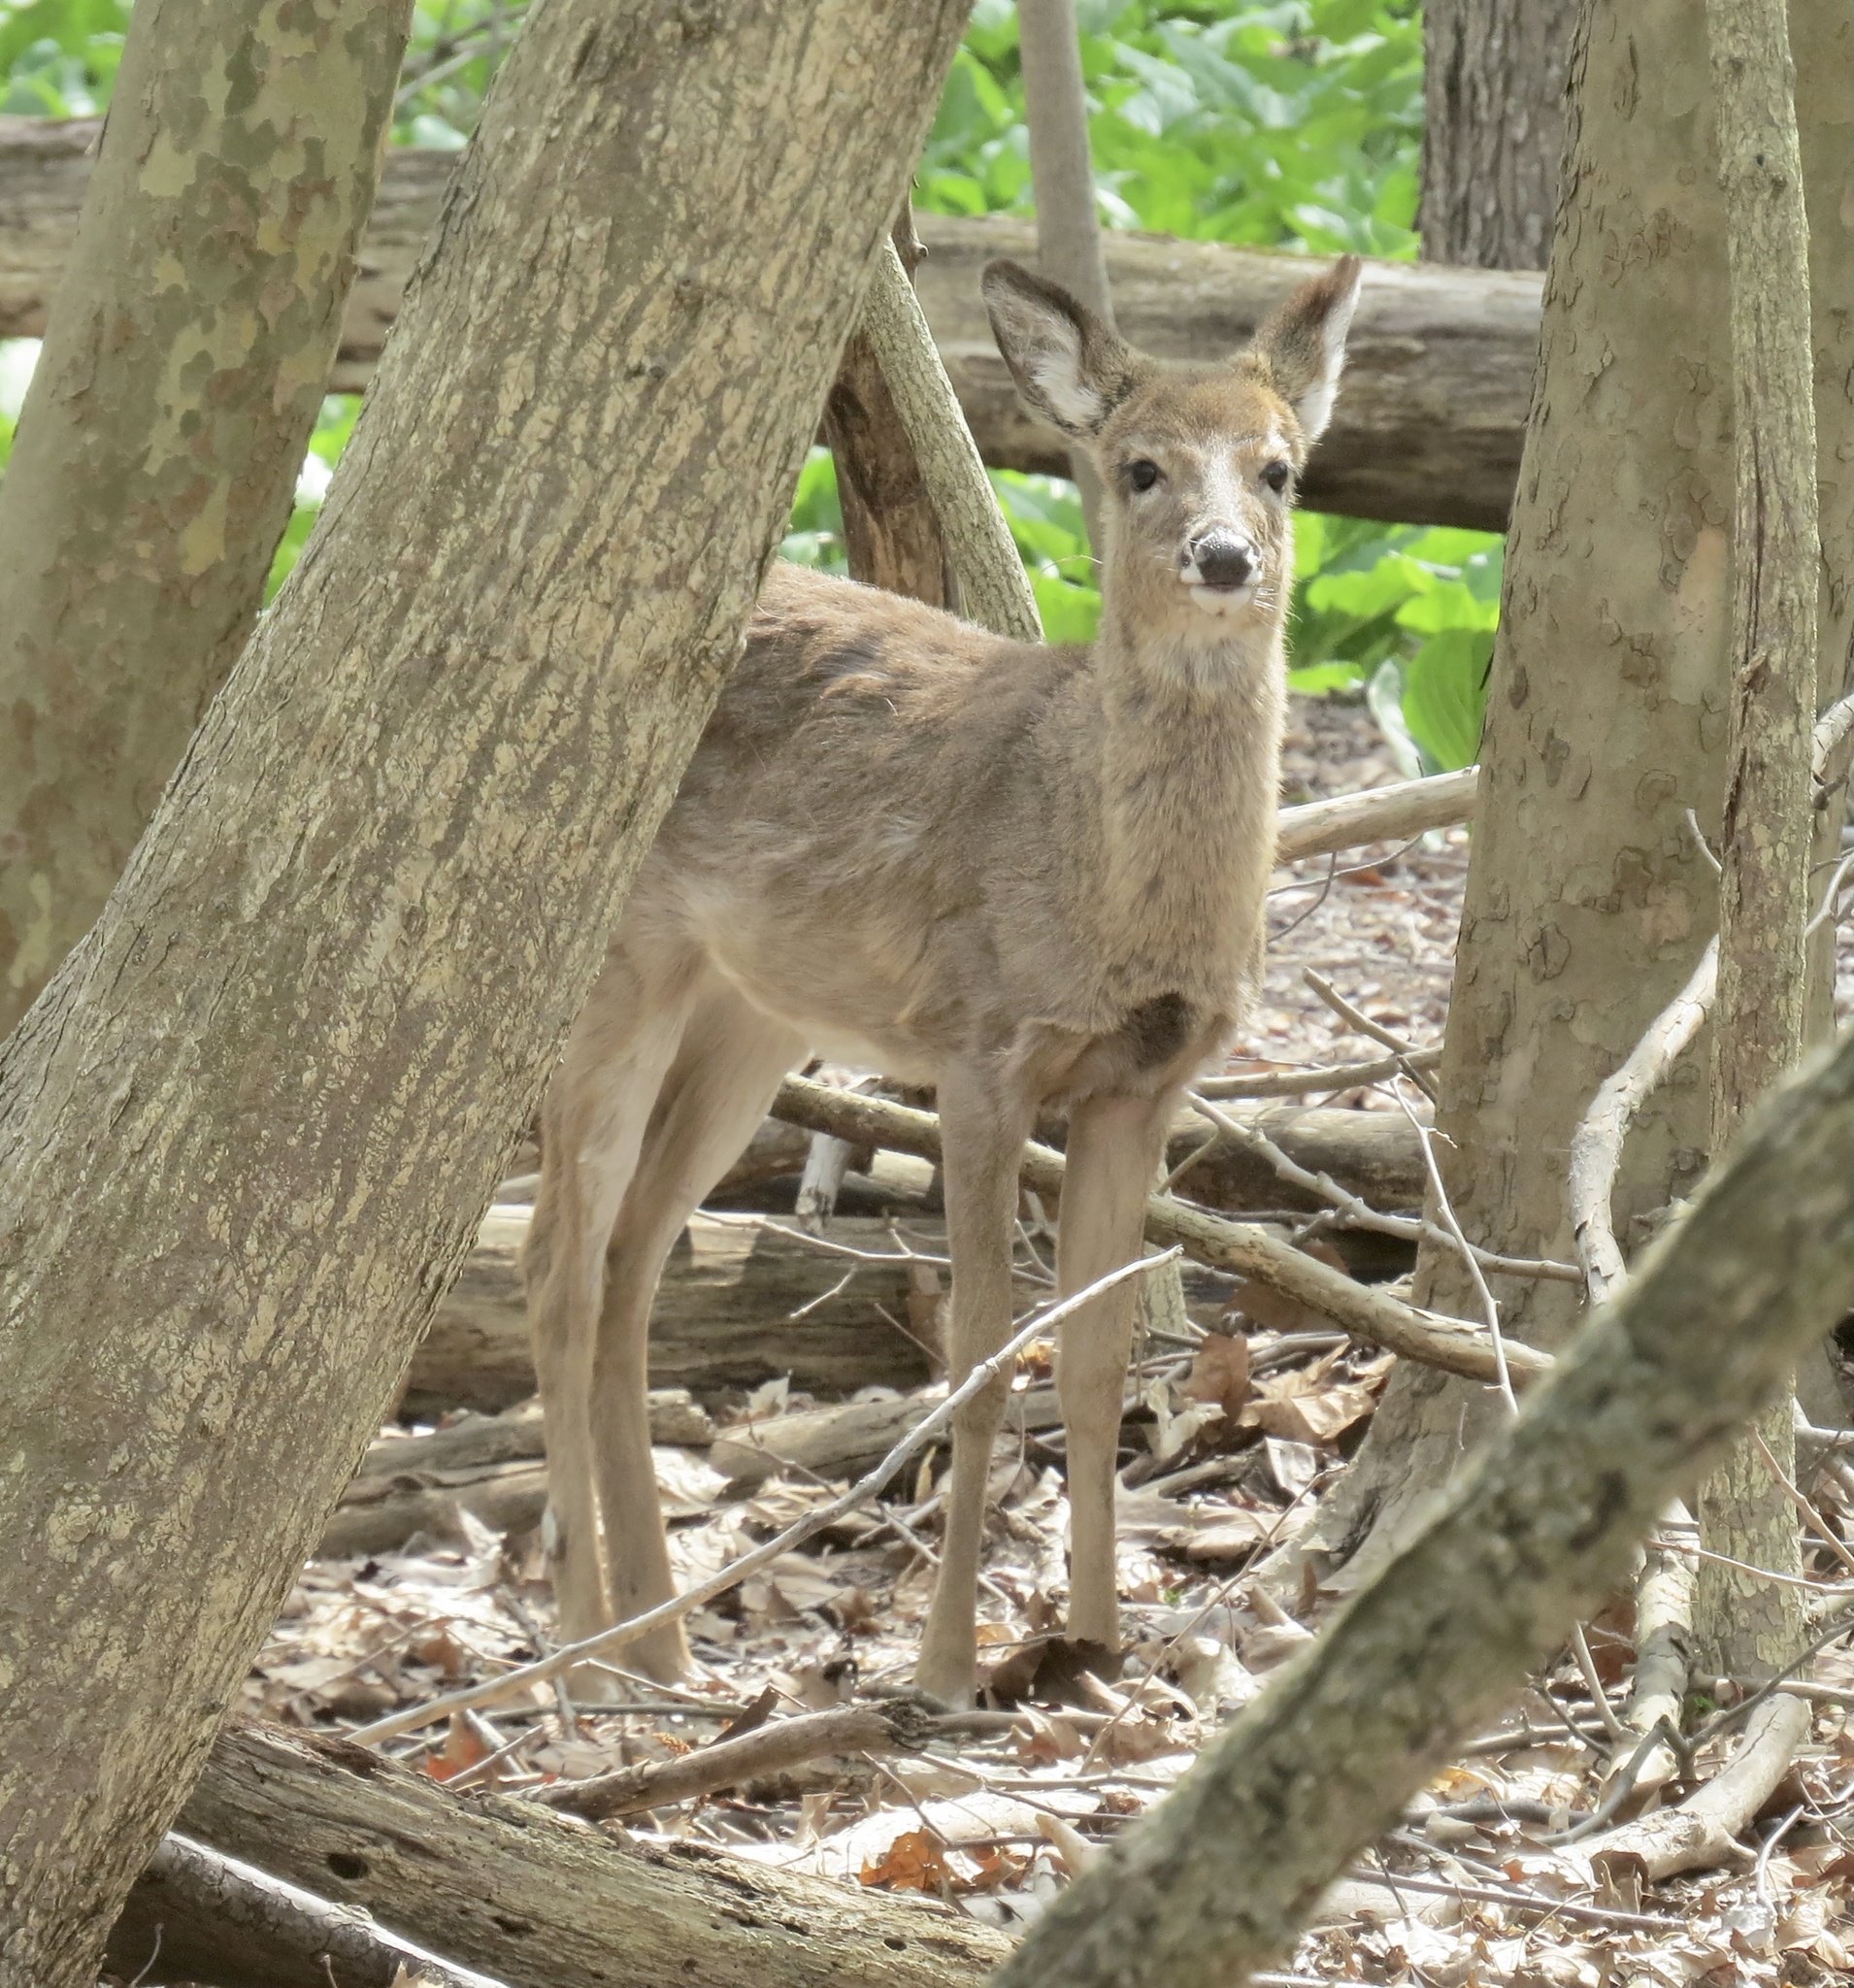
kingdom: Animalia
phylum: Chordata
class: Mammalia
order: Artiodactyla
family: Cervidae
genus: Odocoileus
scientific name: Odocoileus virginianus
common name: White-tailed deer
